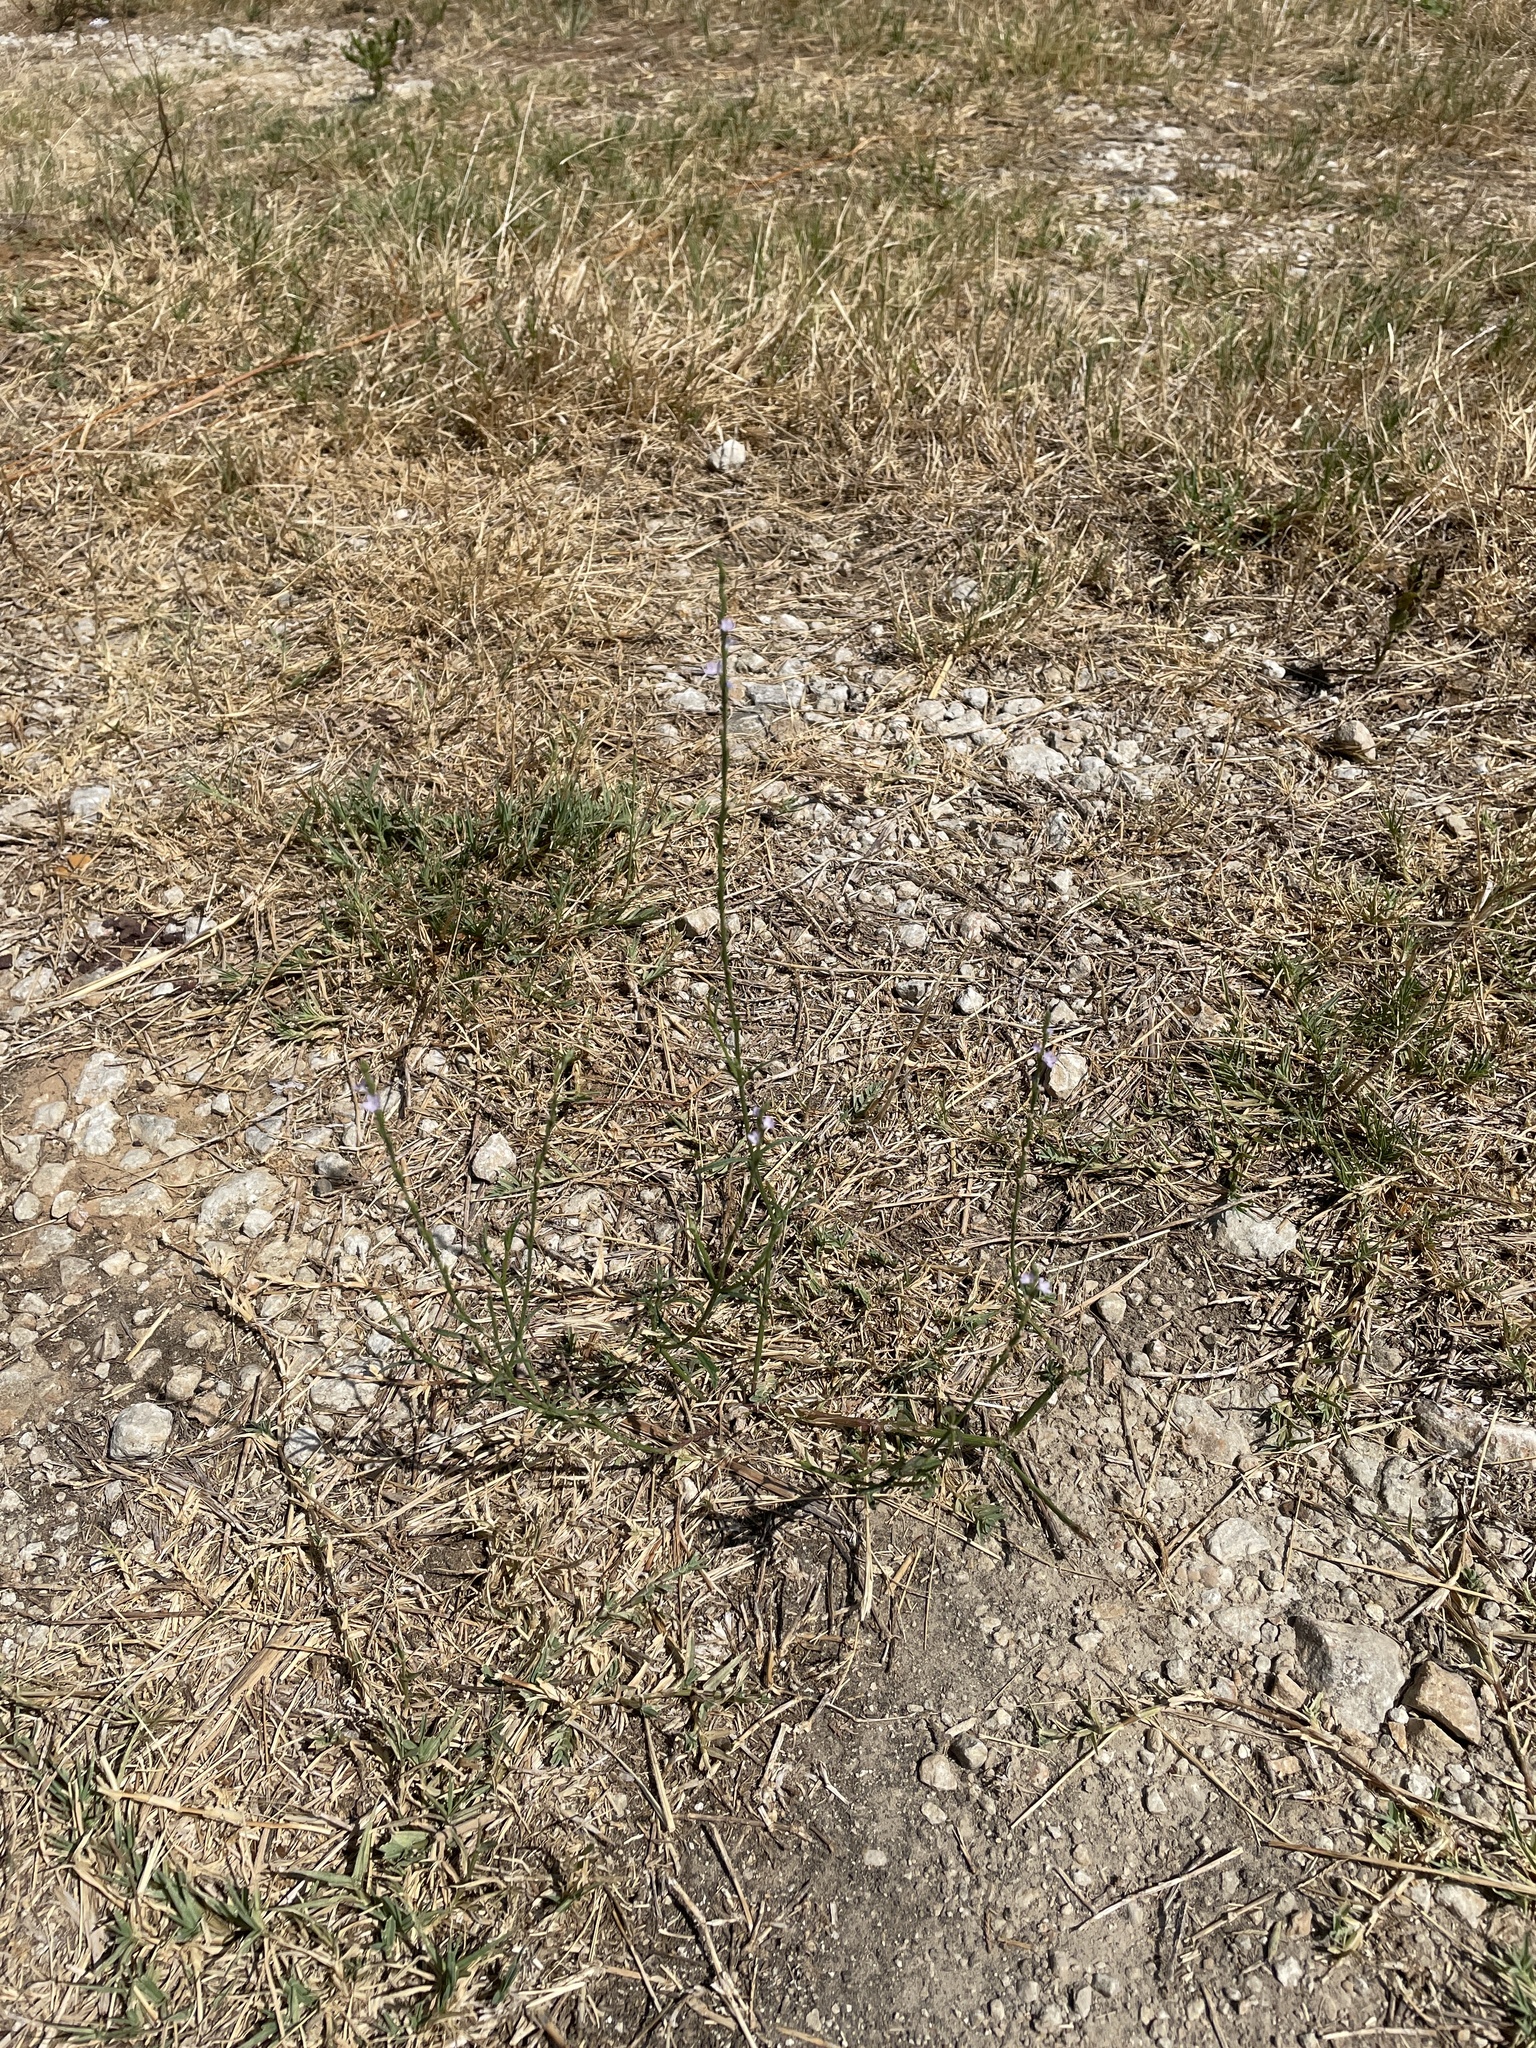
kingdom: Plantae
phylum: Tracheophyta
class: Magnoliopsida
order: Lamiales
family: Verbenaceae
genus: Verbena
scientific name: Verbena halei
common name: Texas vervain
